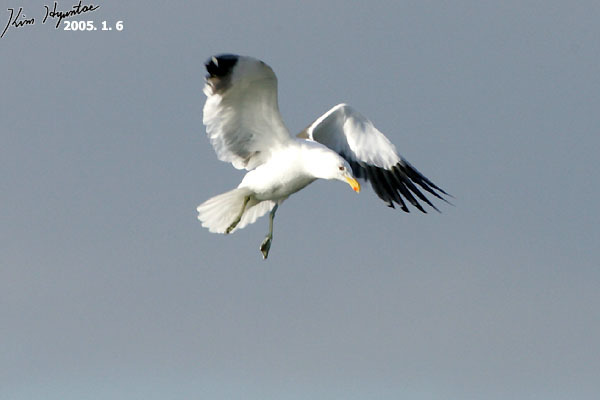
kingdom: Animalia
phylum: Chordata
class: Aves
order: Charadriiformes
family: Laridae
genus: Larus
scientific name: Larus dominicanus
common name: Kelp gull
